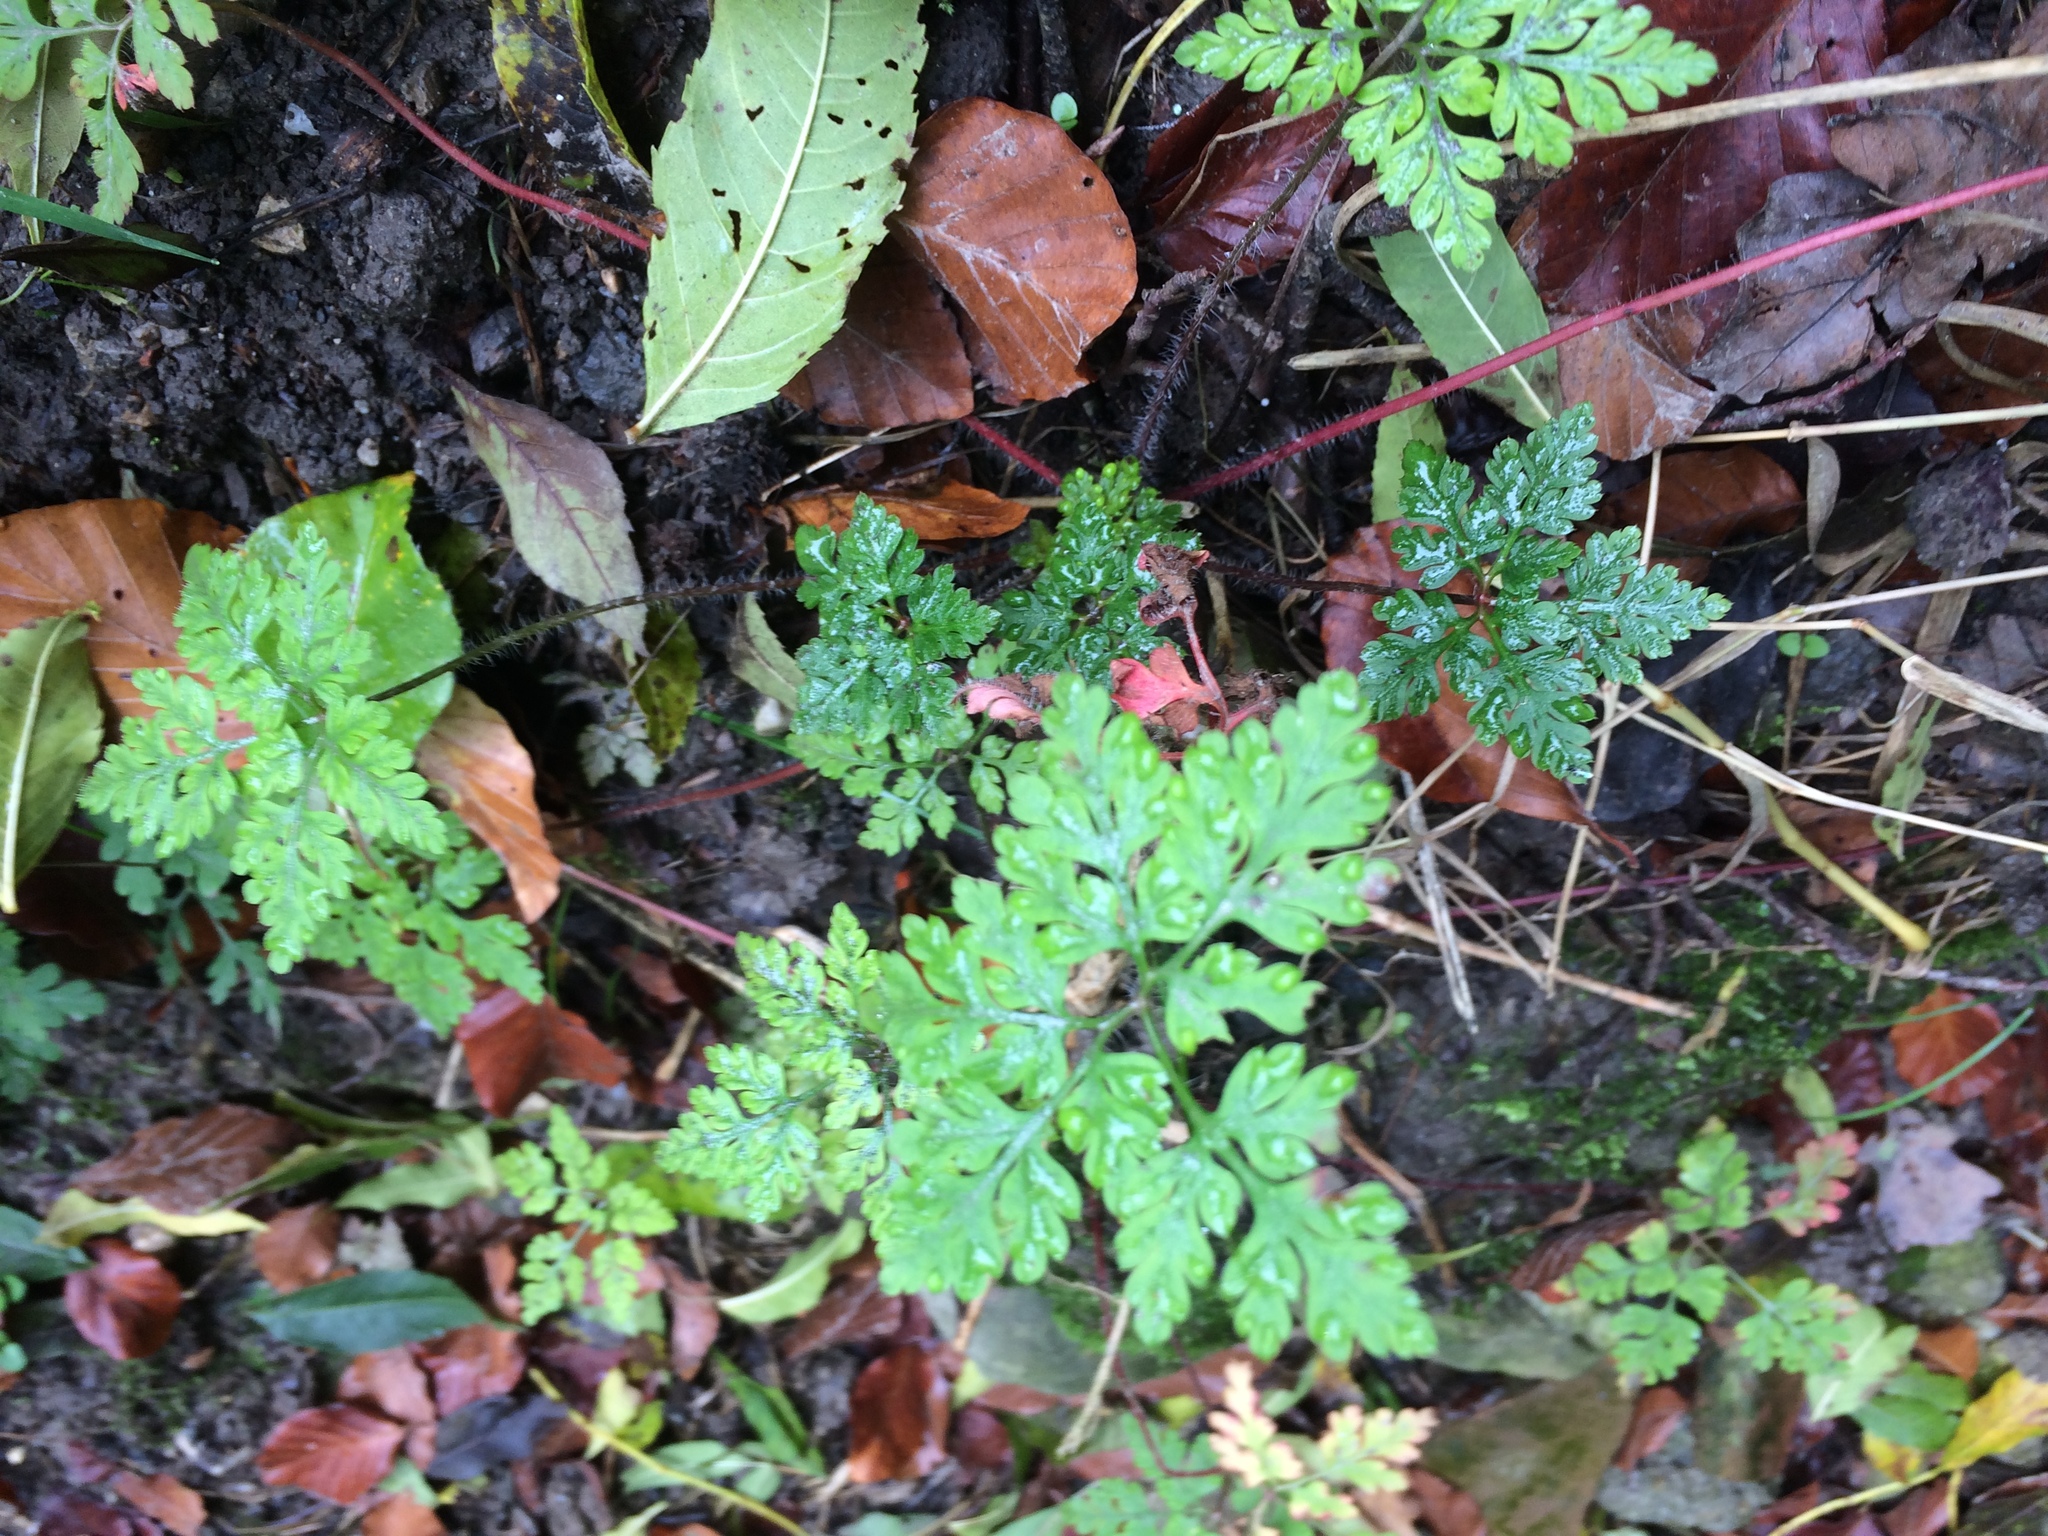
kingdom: Plantae
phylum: Tracheophyta
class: Magnoliopsida
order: Geraniales
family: Geraniaceae
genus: Geranium
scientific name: Geranium robertianum
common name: Herb-robert
